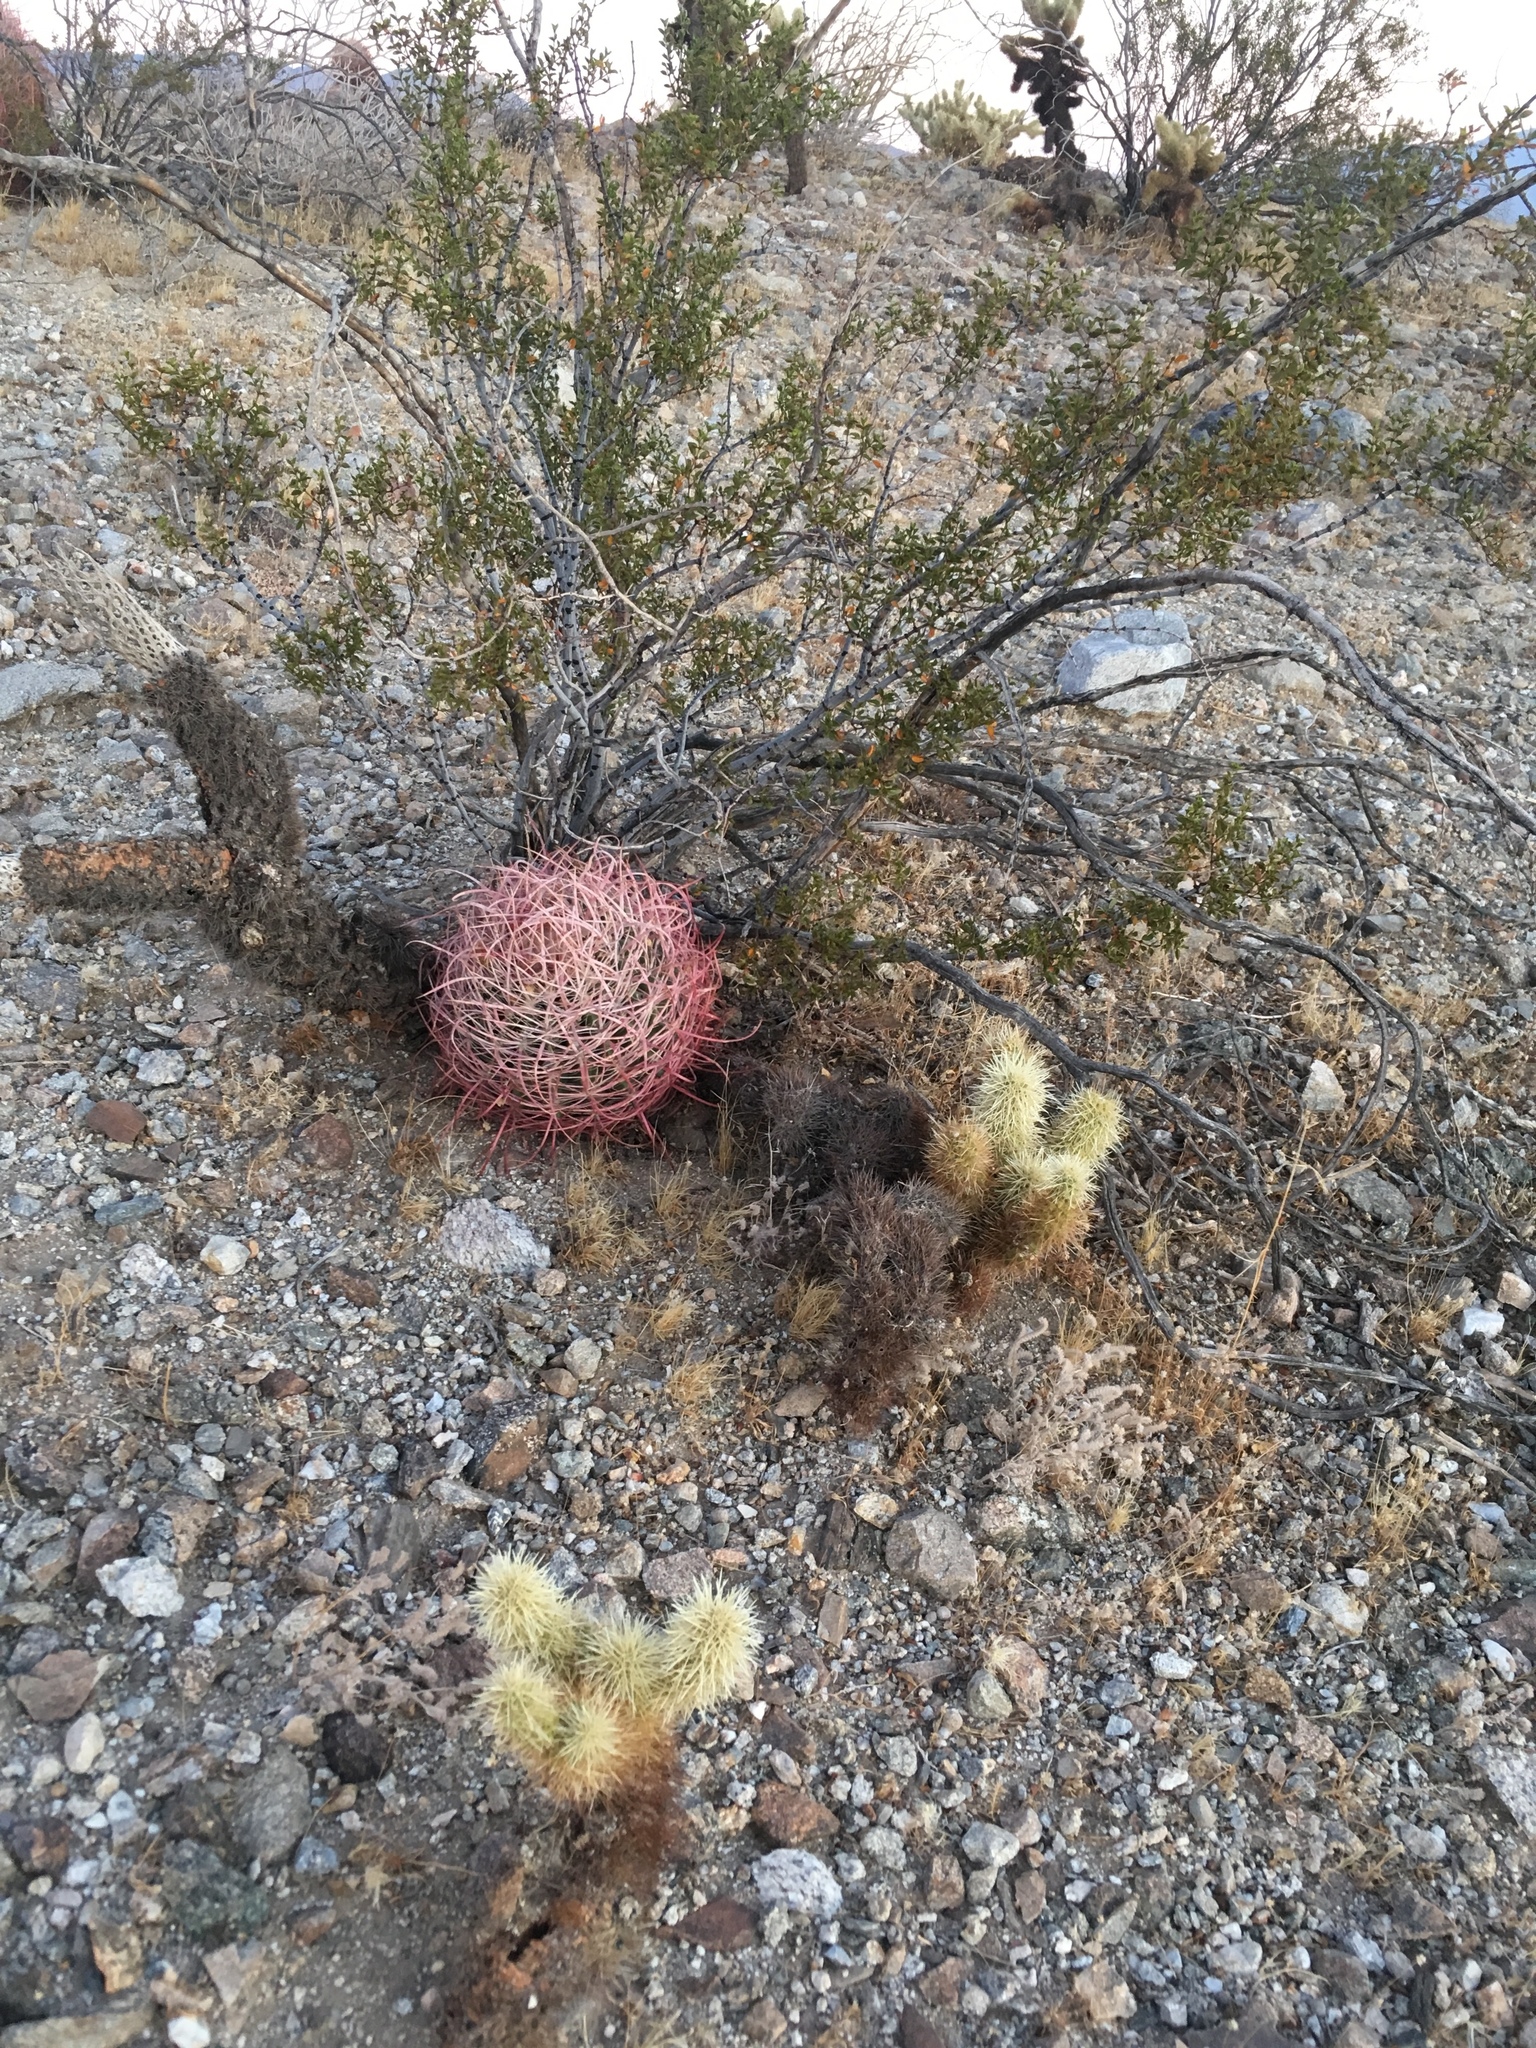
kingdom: Plantae
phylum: Tracheophyta
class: Magnoliopsida
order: Caryophyllales
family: Cactaceae
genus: Ferocactus
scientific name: Ferocactus cylindraceus
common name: California barrel cactus
